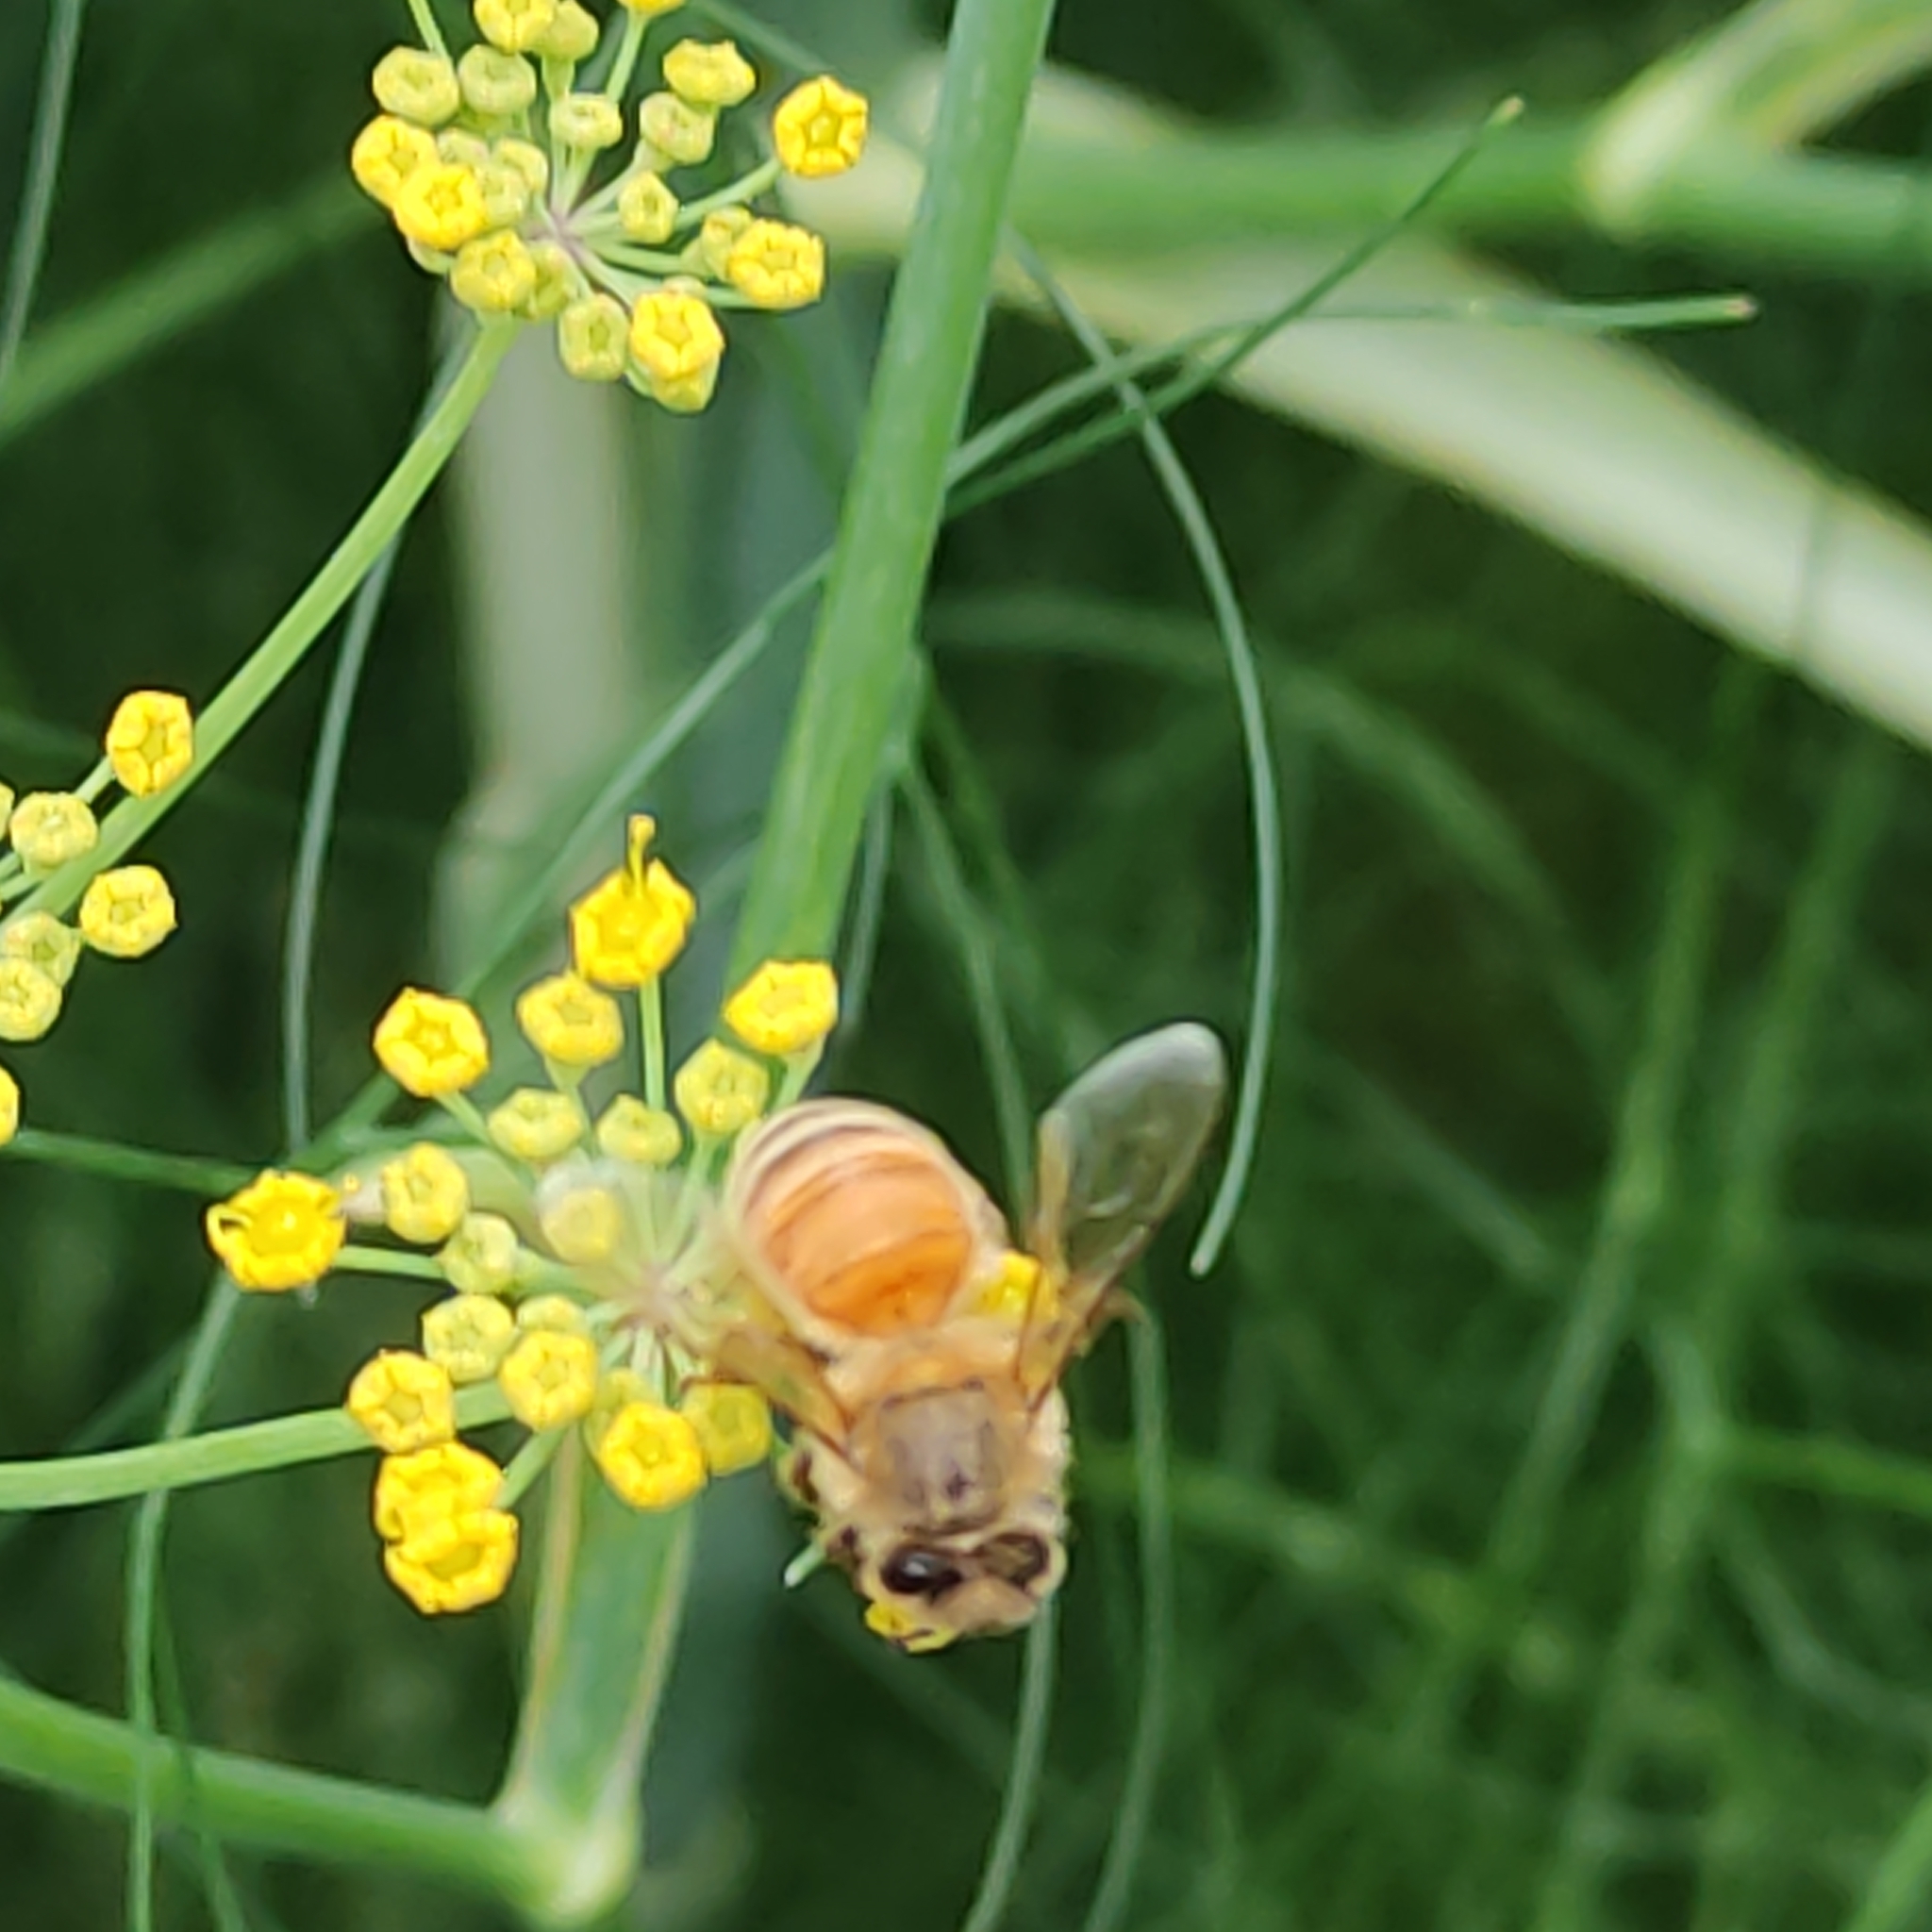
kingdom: Animalia
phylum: Arthropoda
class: Insecta
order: Hymenoptera
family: Apidae
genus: Apis
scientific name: Apis mellifera
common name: Honey bee
